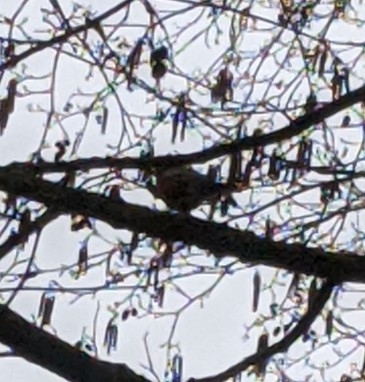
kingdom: Animalia
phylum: Chordata
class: Aves
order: Passeriformes
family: Turdidae
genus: Turdus
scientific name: Turdus migratorius
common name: American robin
